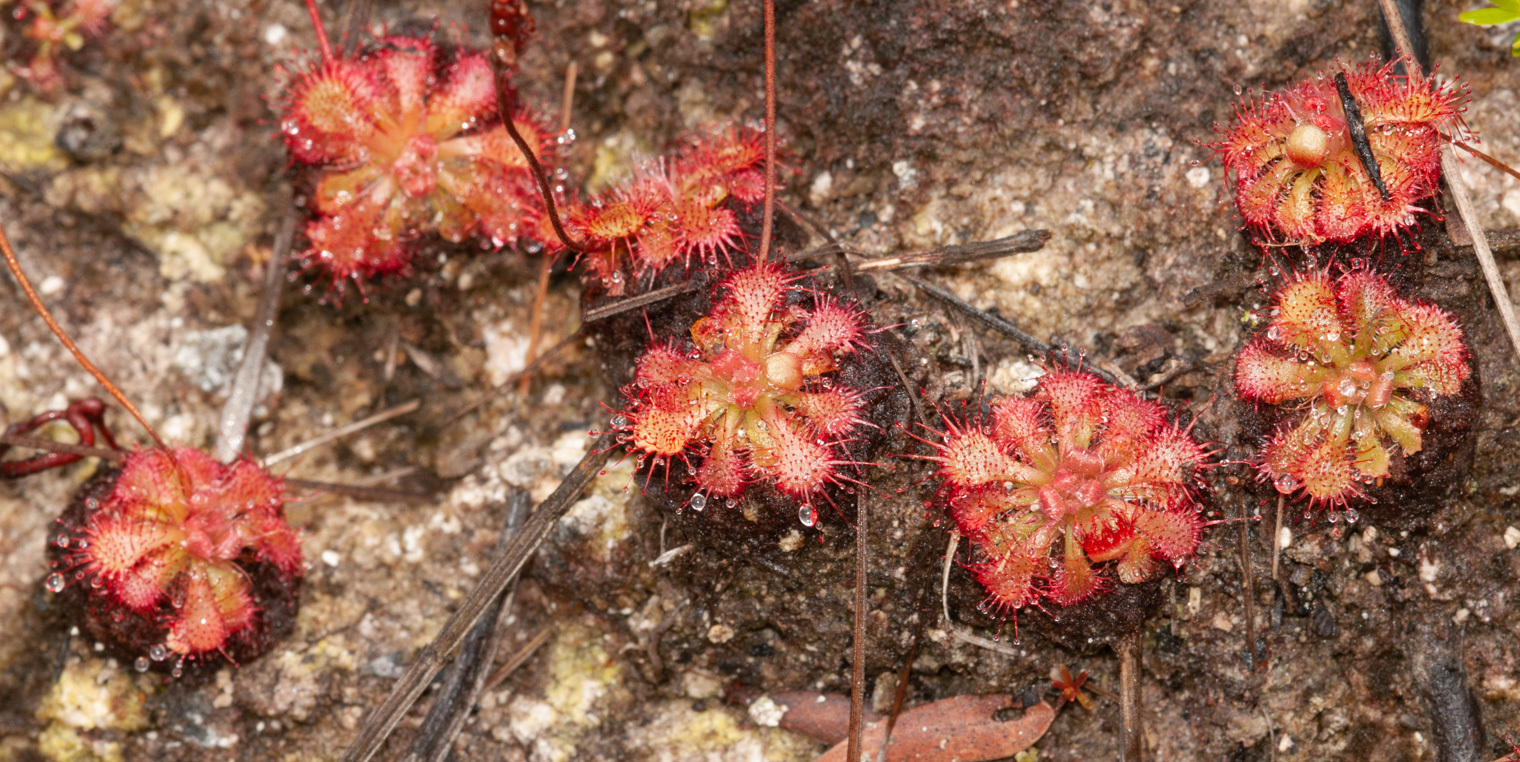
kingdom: Plantae
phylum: Tracheophyta
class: Magnoliopsida
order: Caryophyllales
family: Droseraceae
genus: Drosera
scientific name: Drosera spatulata
